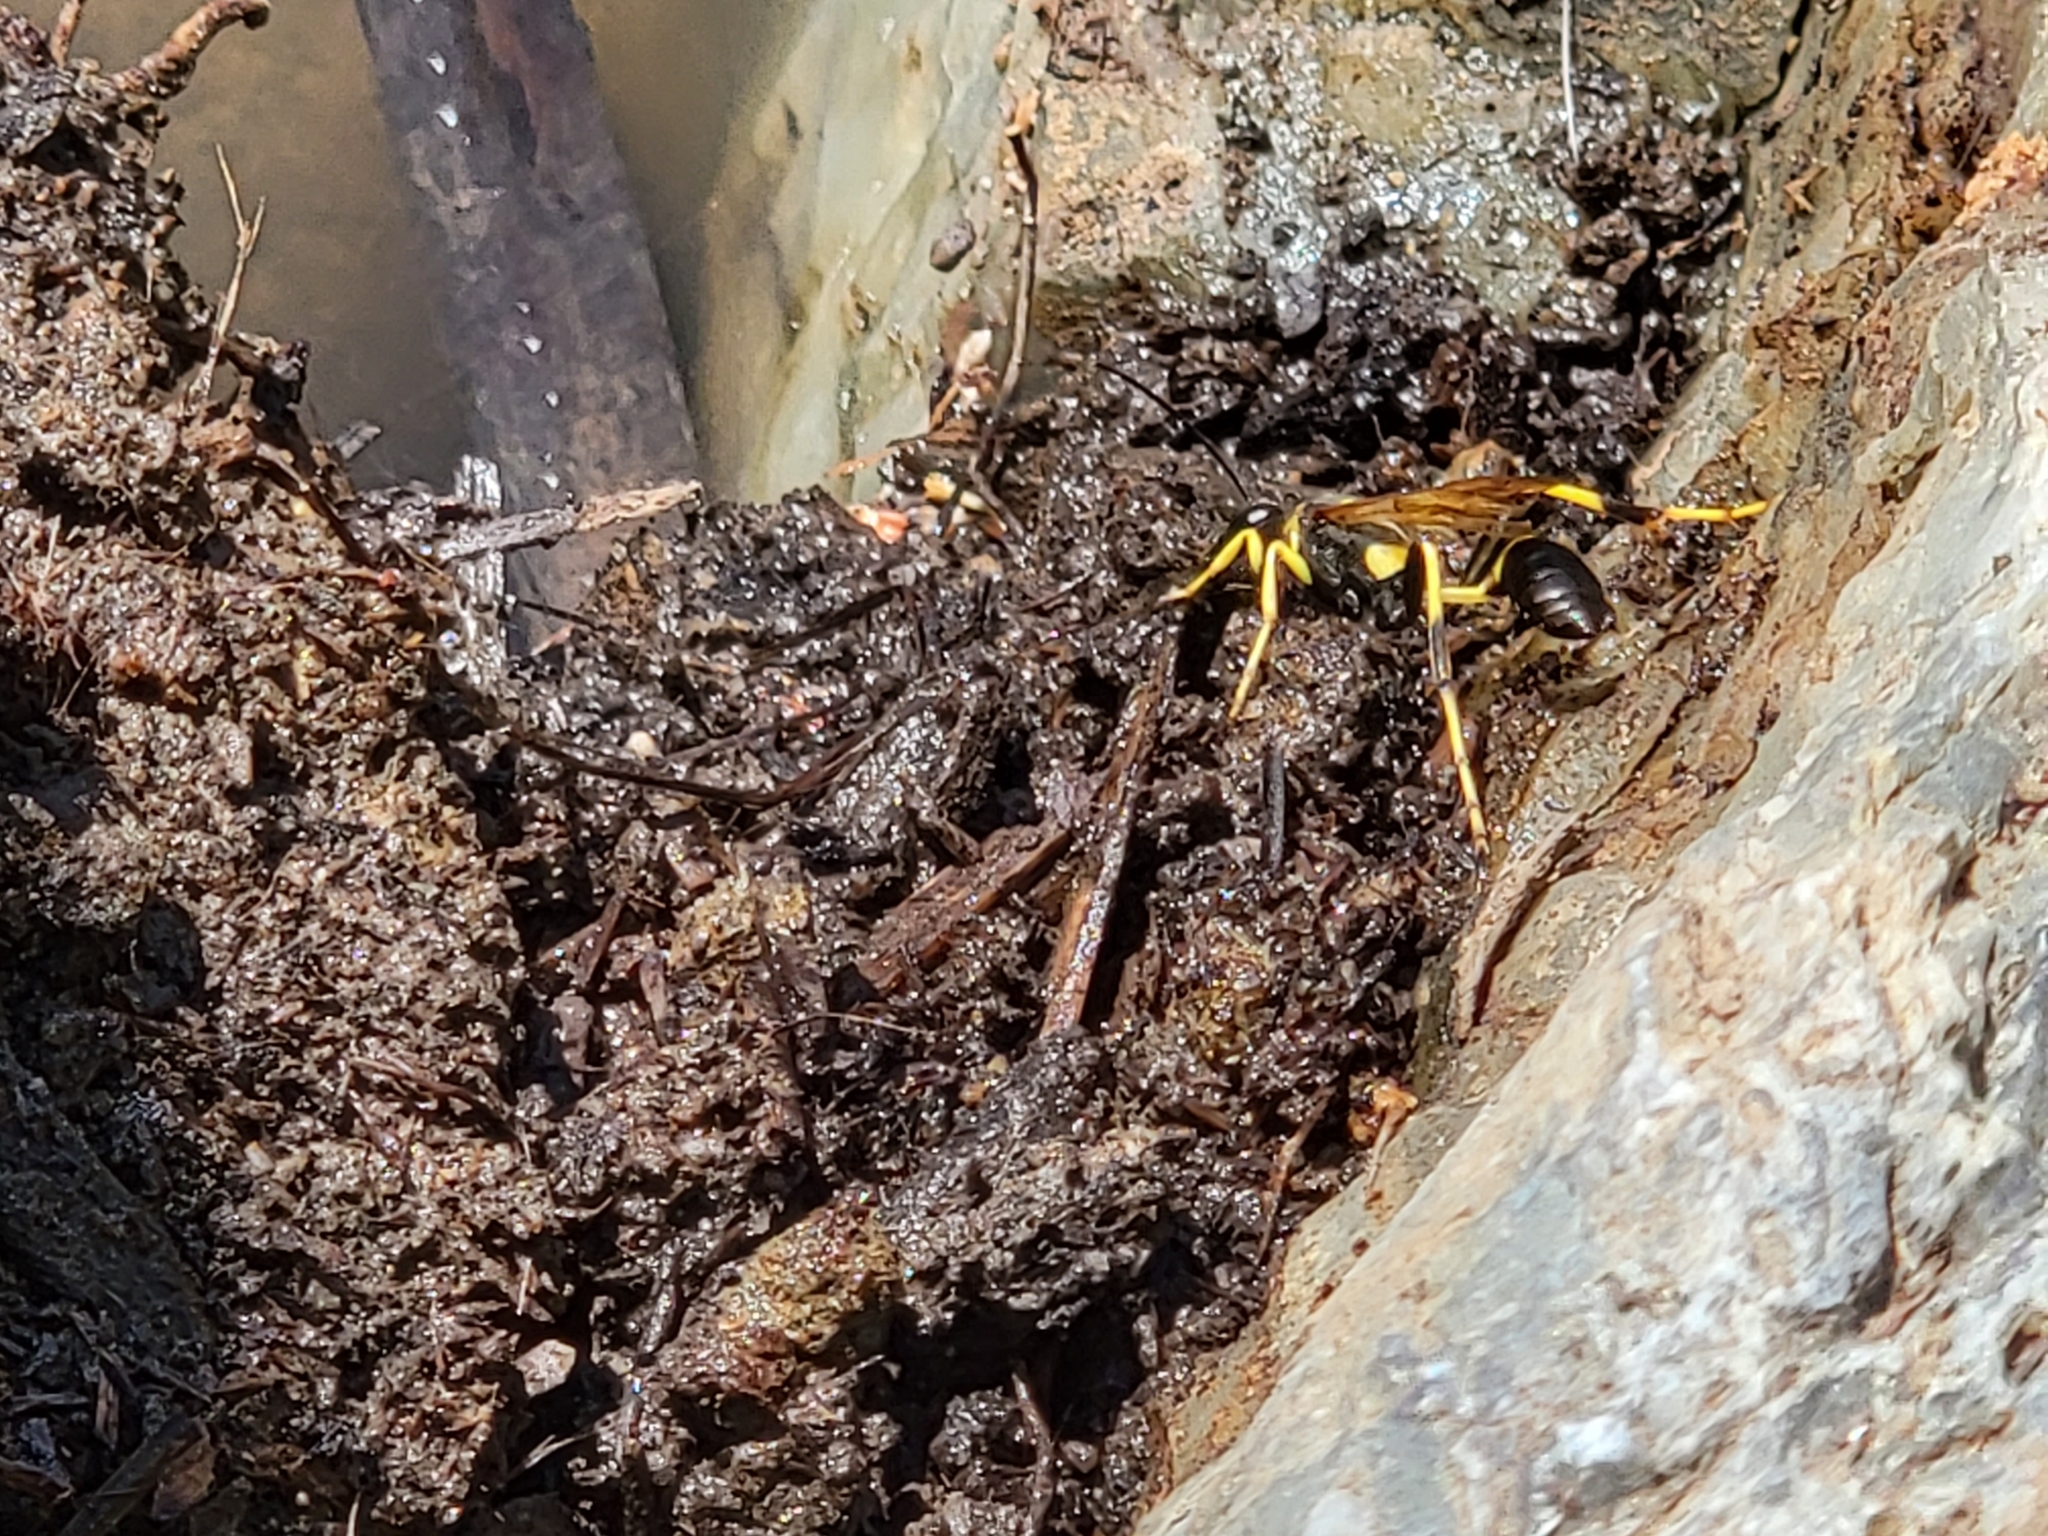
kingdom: Animalia
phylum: Arthropoda
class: Insecta
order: Hymenoptera
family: Sphecidae
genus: Sceliphron
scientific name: Sceliphron caementarium
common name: Mud dauber
